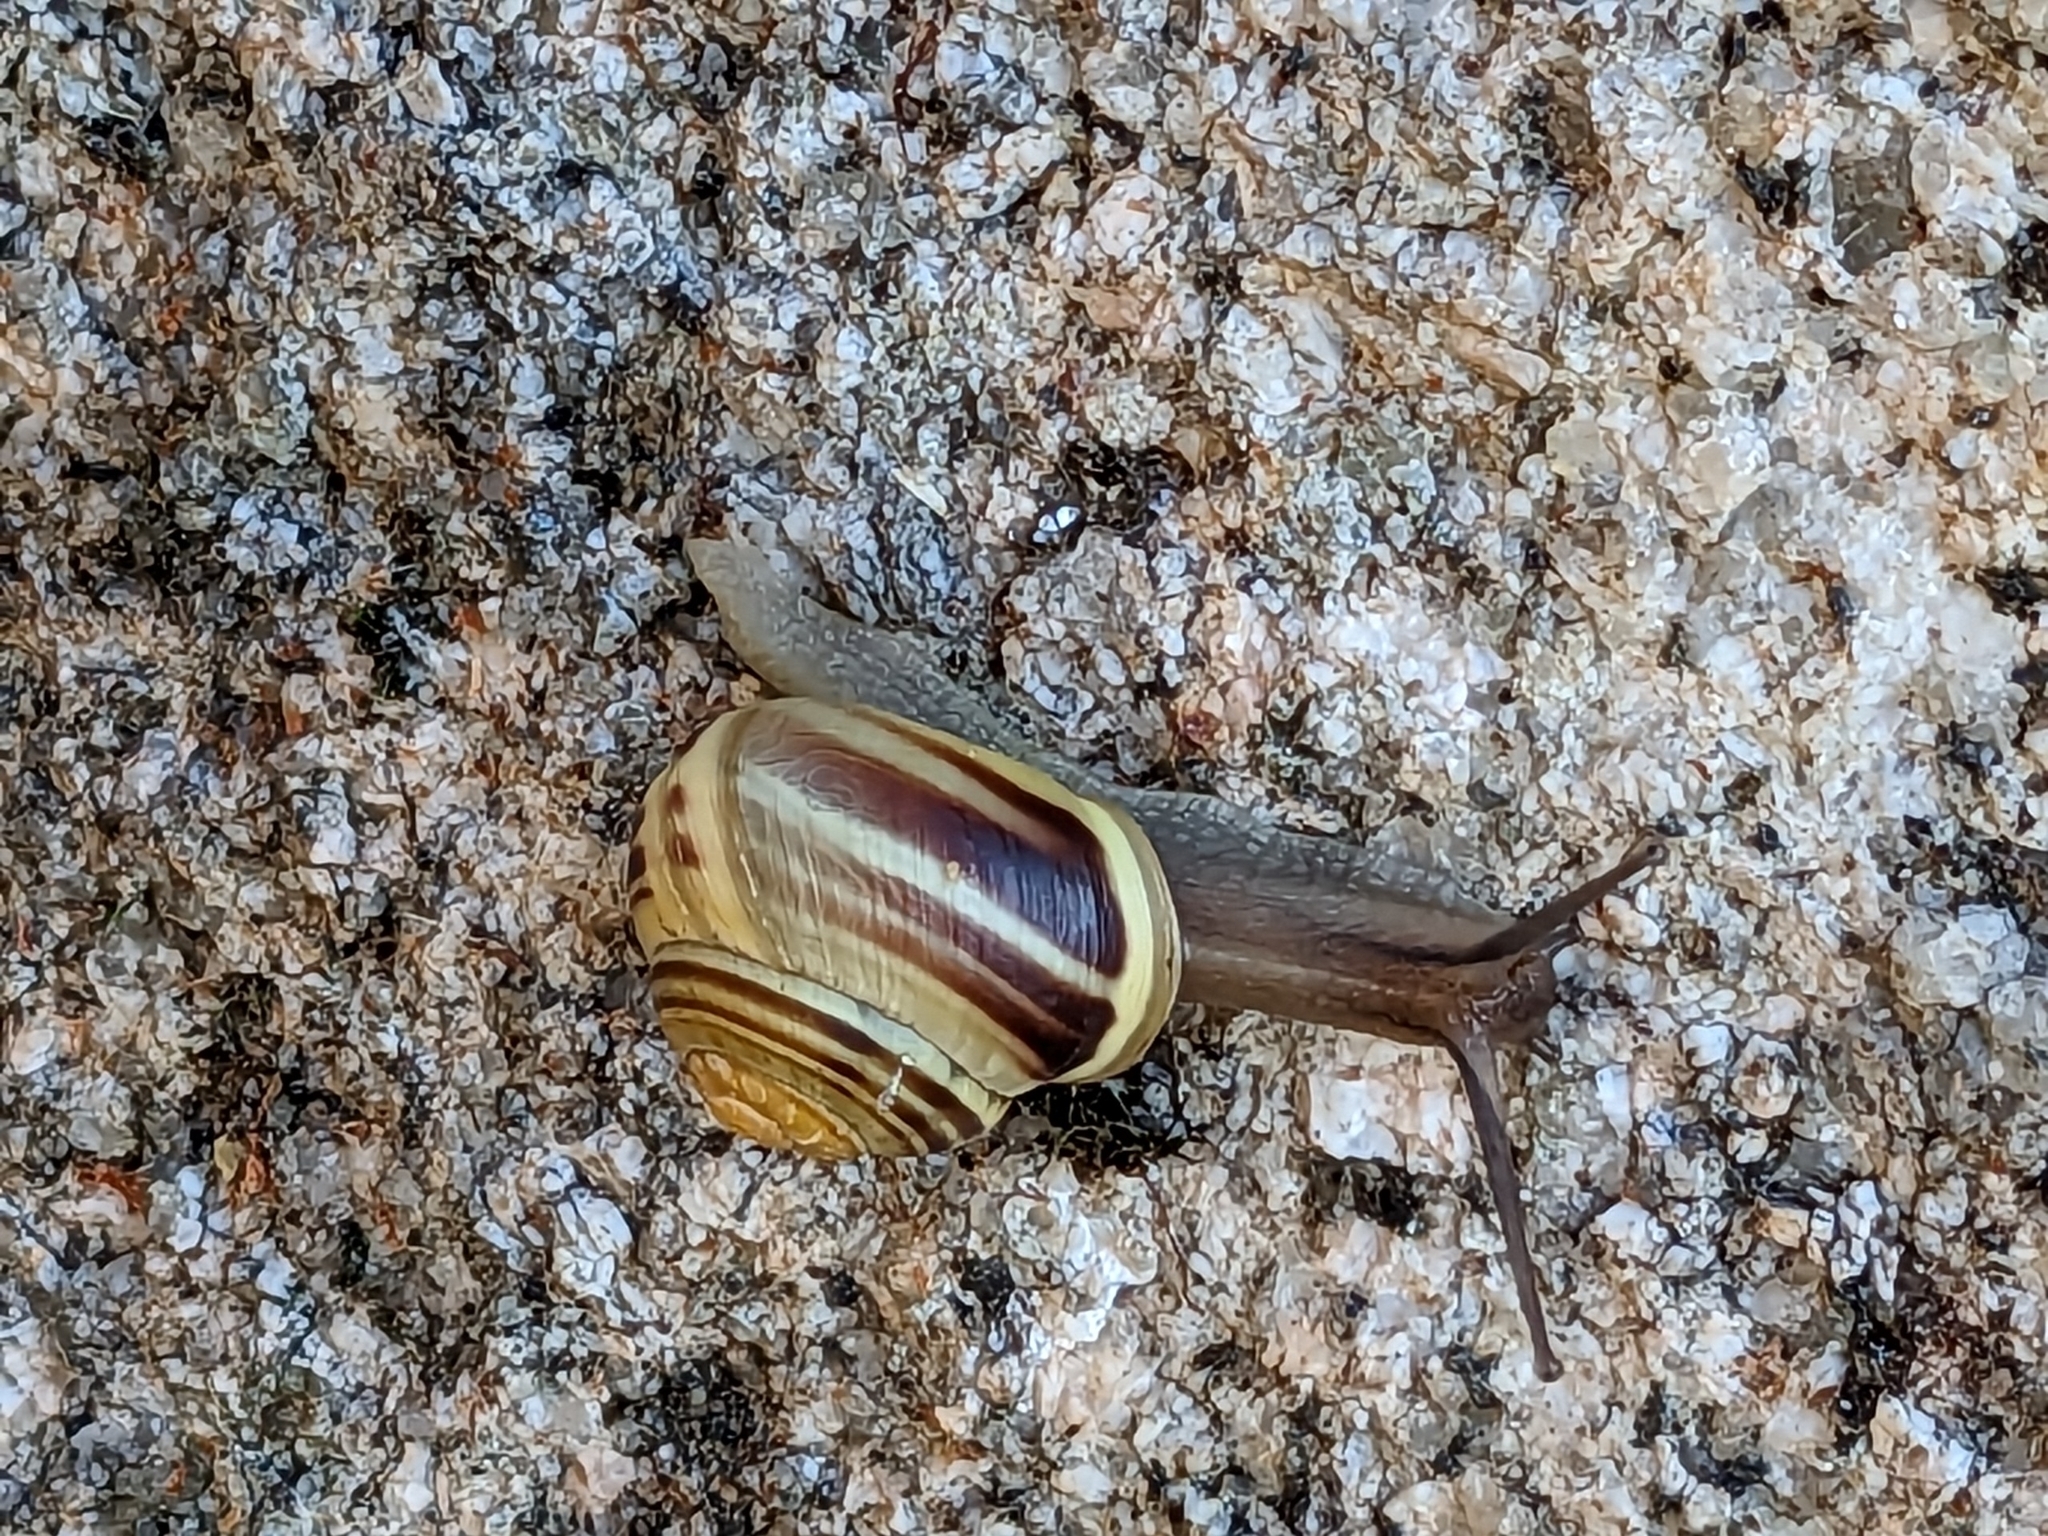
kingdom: Animalia
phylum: Mollusca
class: Gastropoda
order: Stylommatophora
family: Helicidae
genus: Cepaea
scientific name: Cepaea hortensis
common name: White-lip gardensnail
